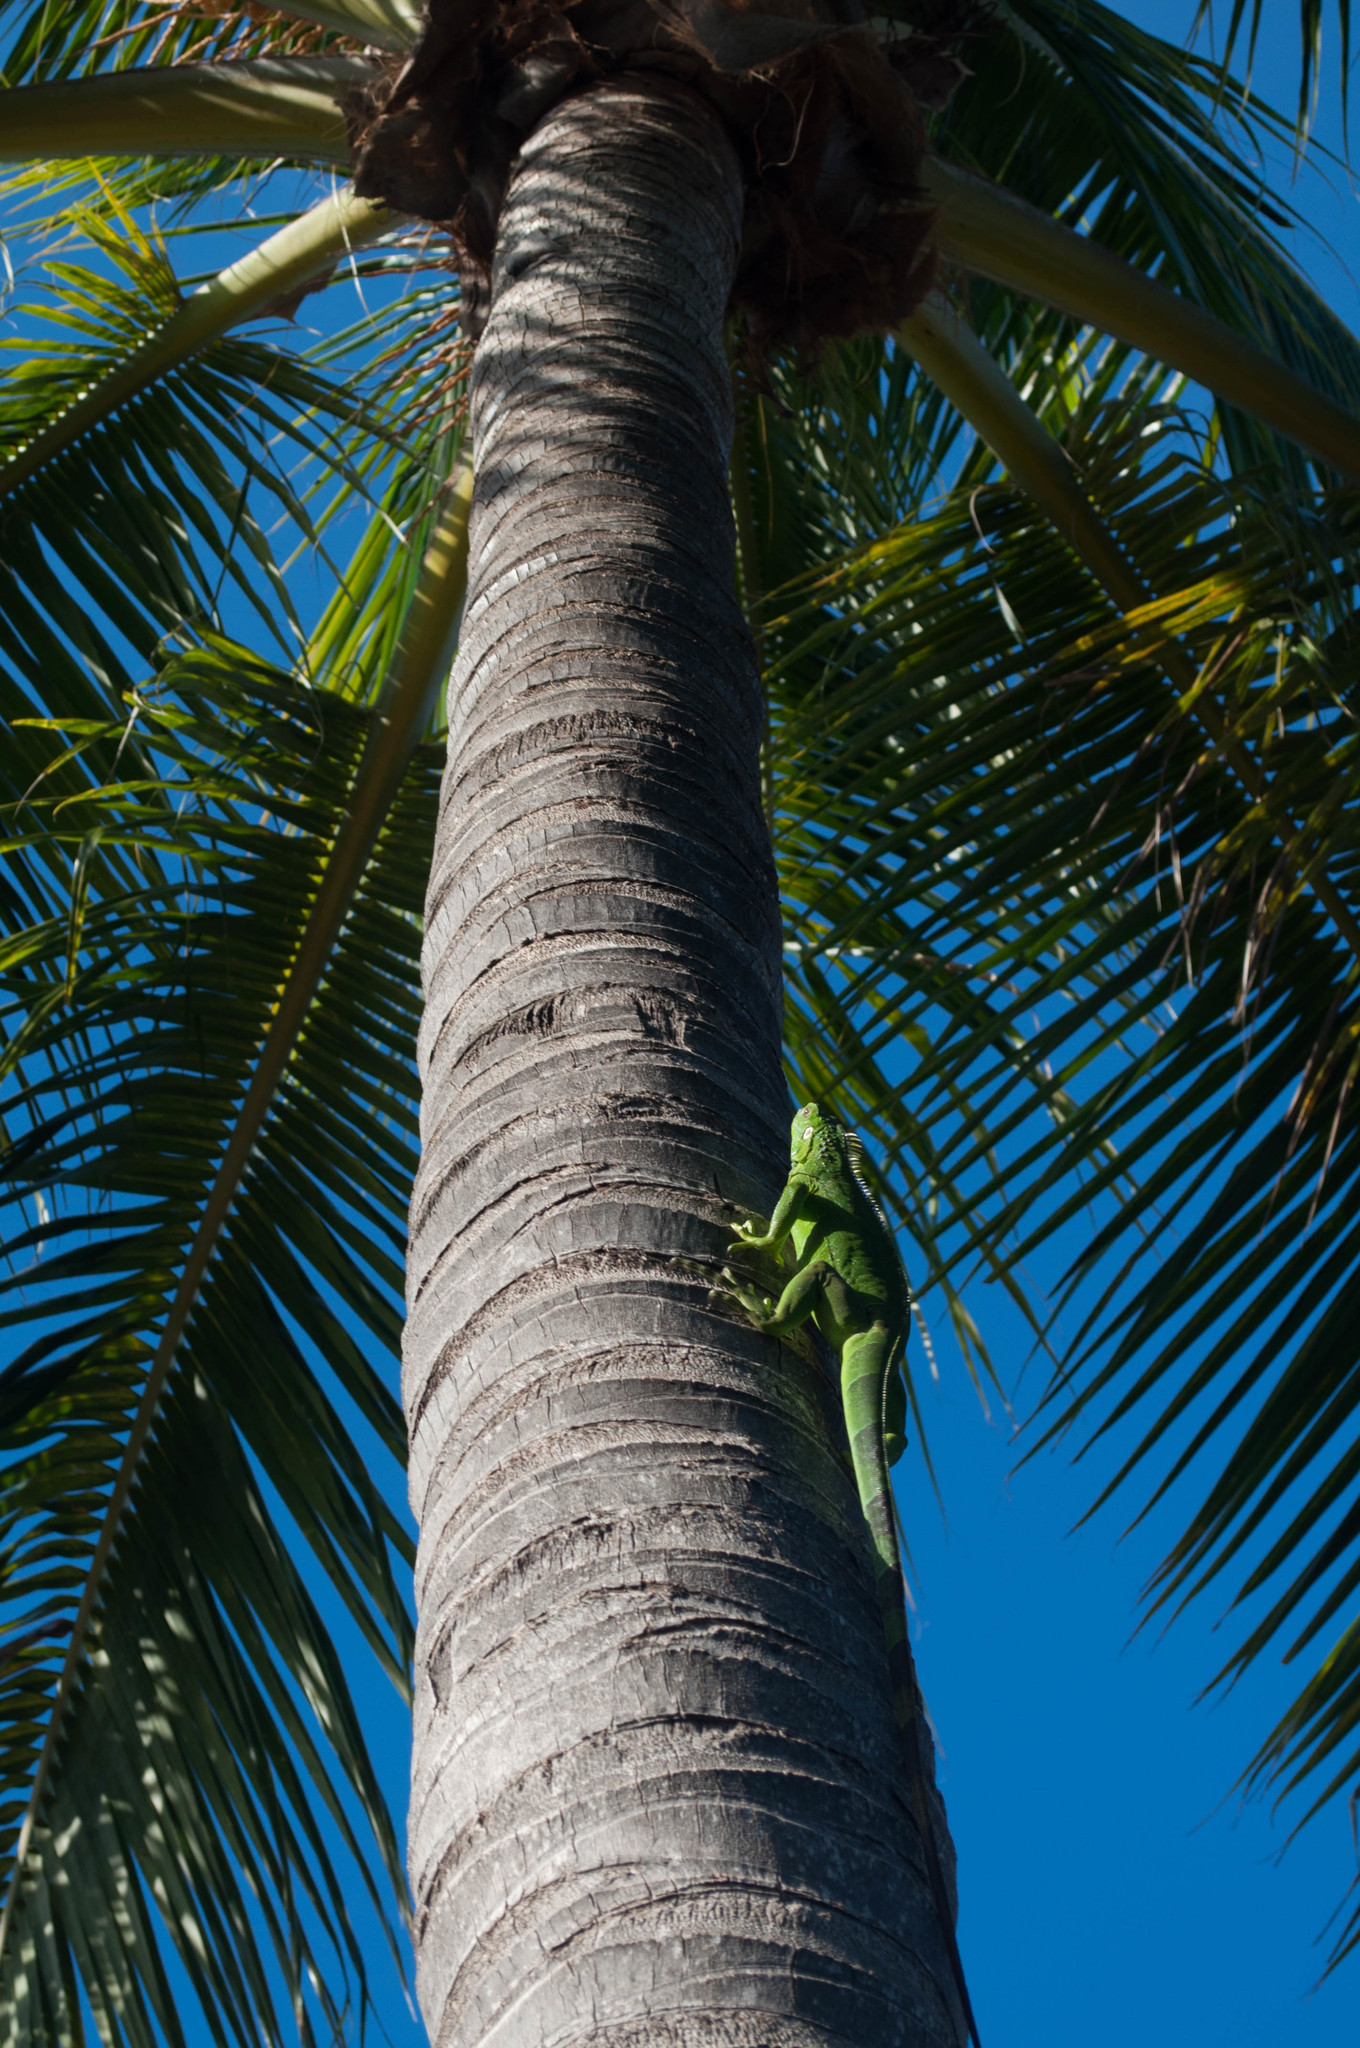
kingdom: Animalia
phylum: Chordata
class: Squamata
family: Iguanidae
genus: Iguana
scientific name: Iguana iguana
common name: Green iguana
